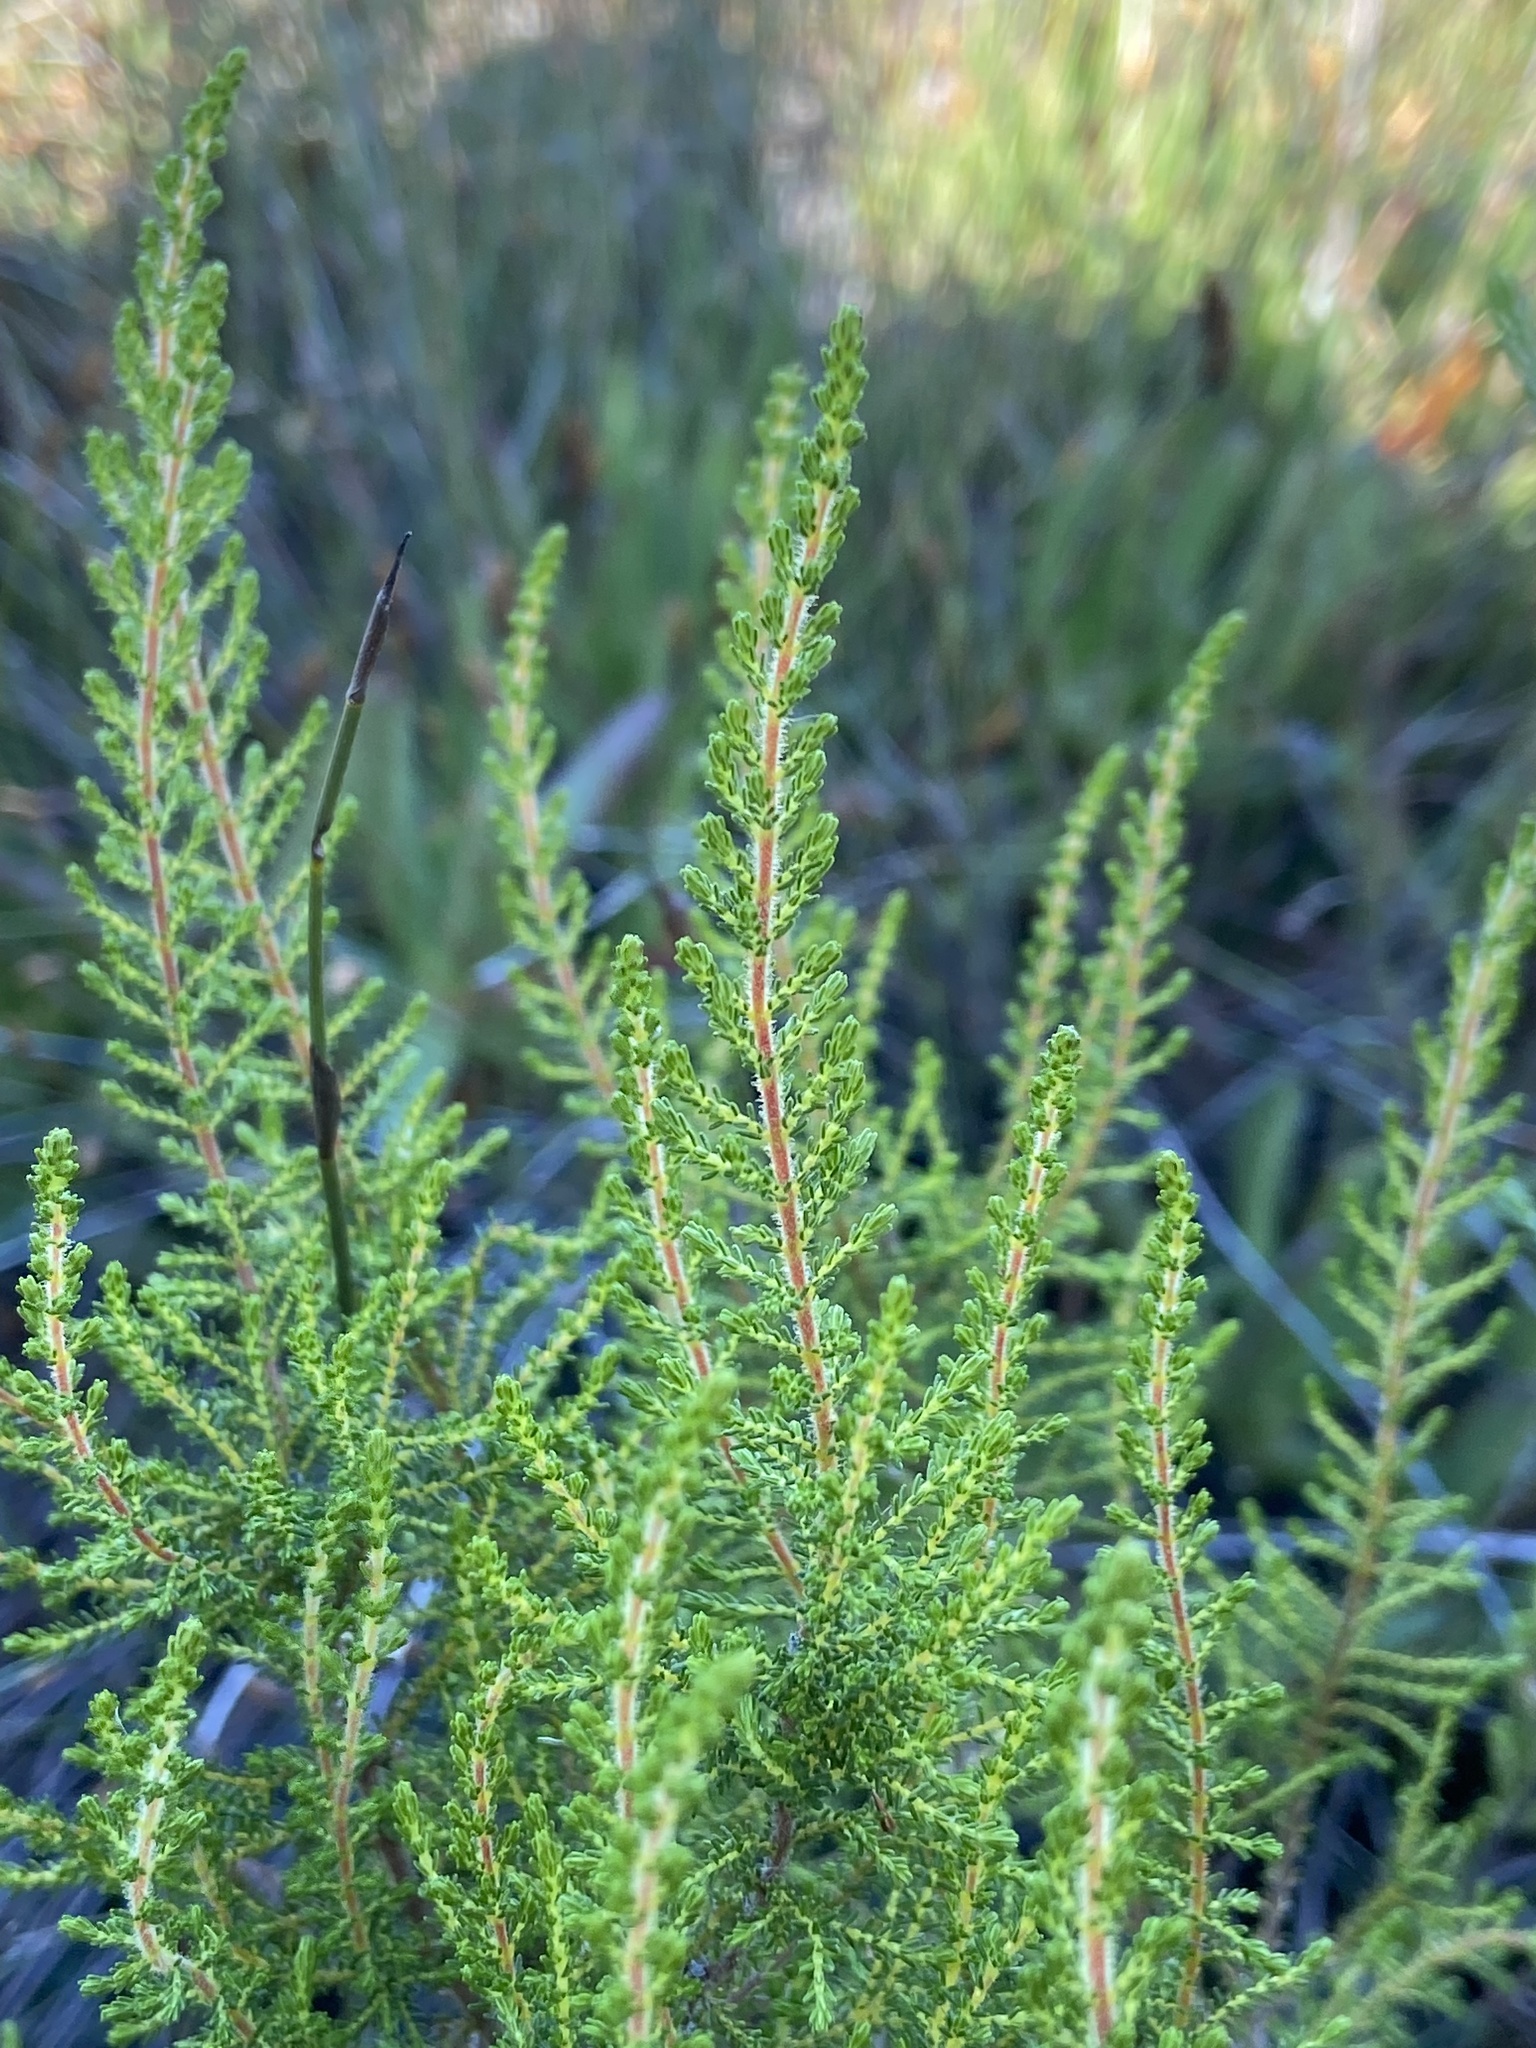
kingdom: Plantae
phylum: Tracheophyta
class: Magnoliopsida
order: Malvales
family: Thymelaeaceae
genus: Passerina
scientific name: Passerina corymbosa
